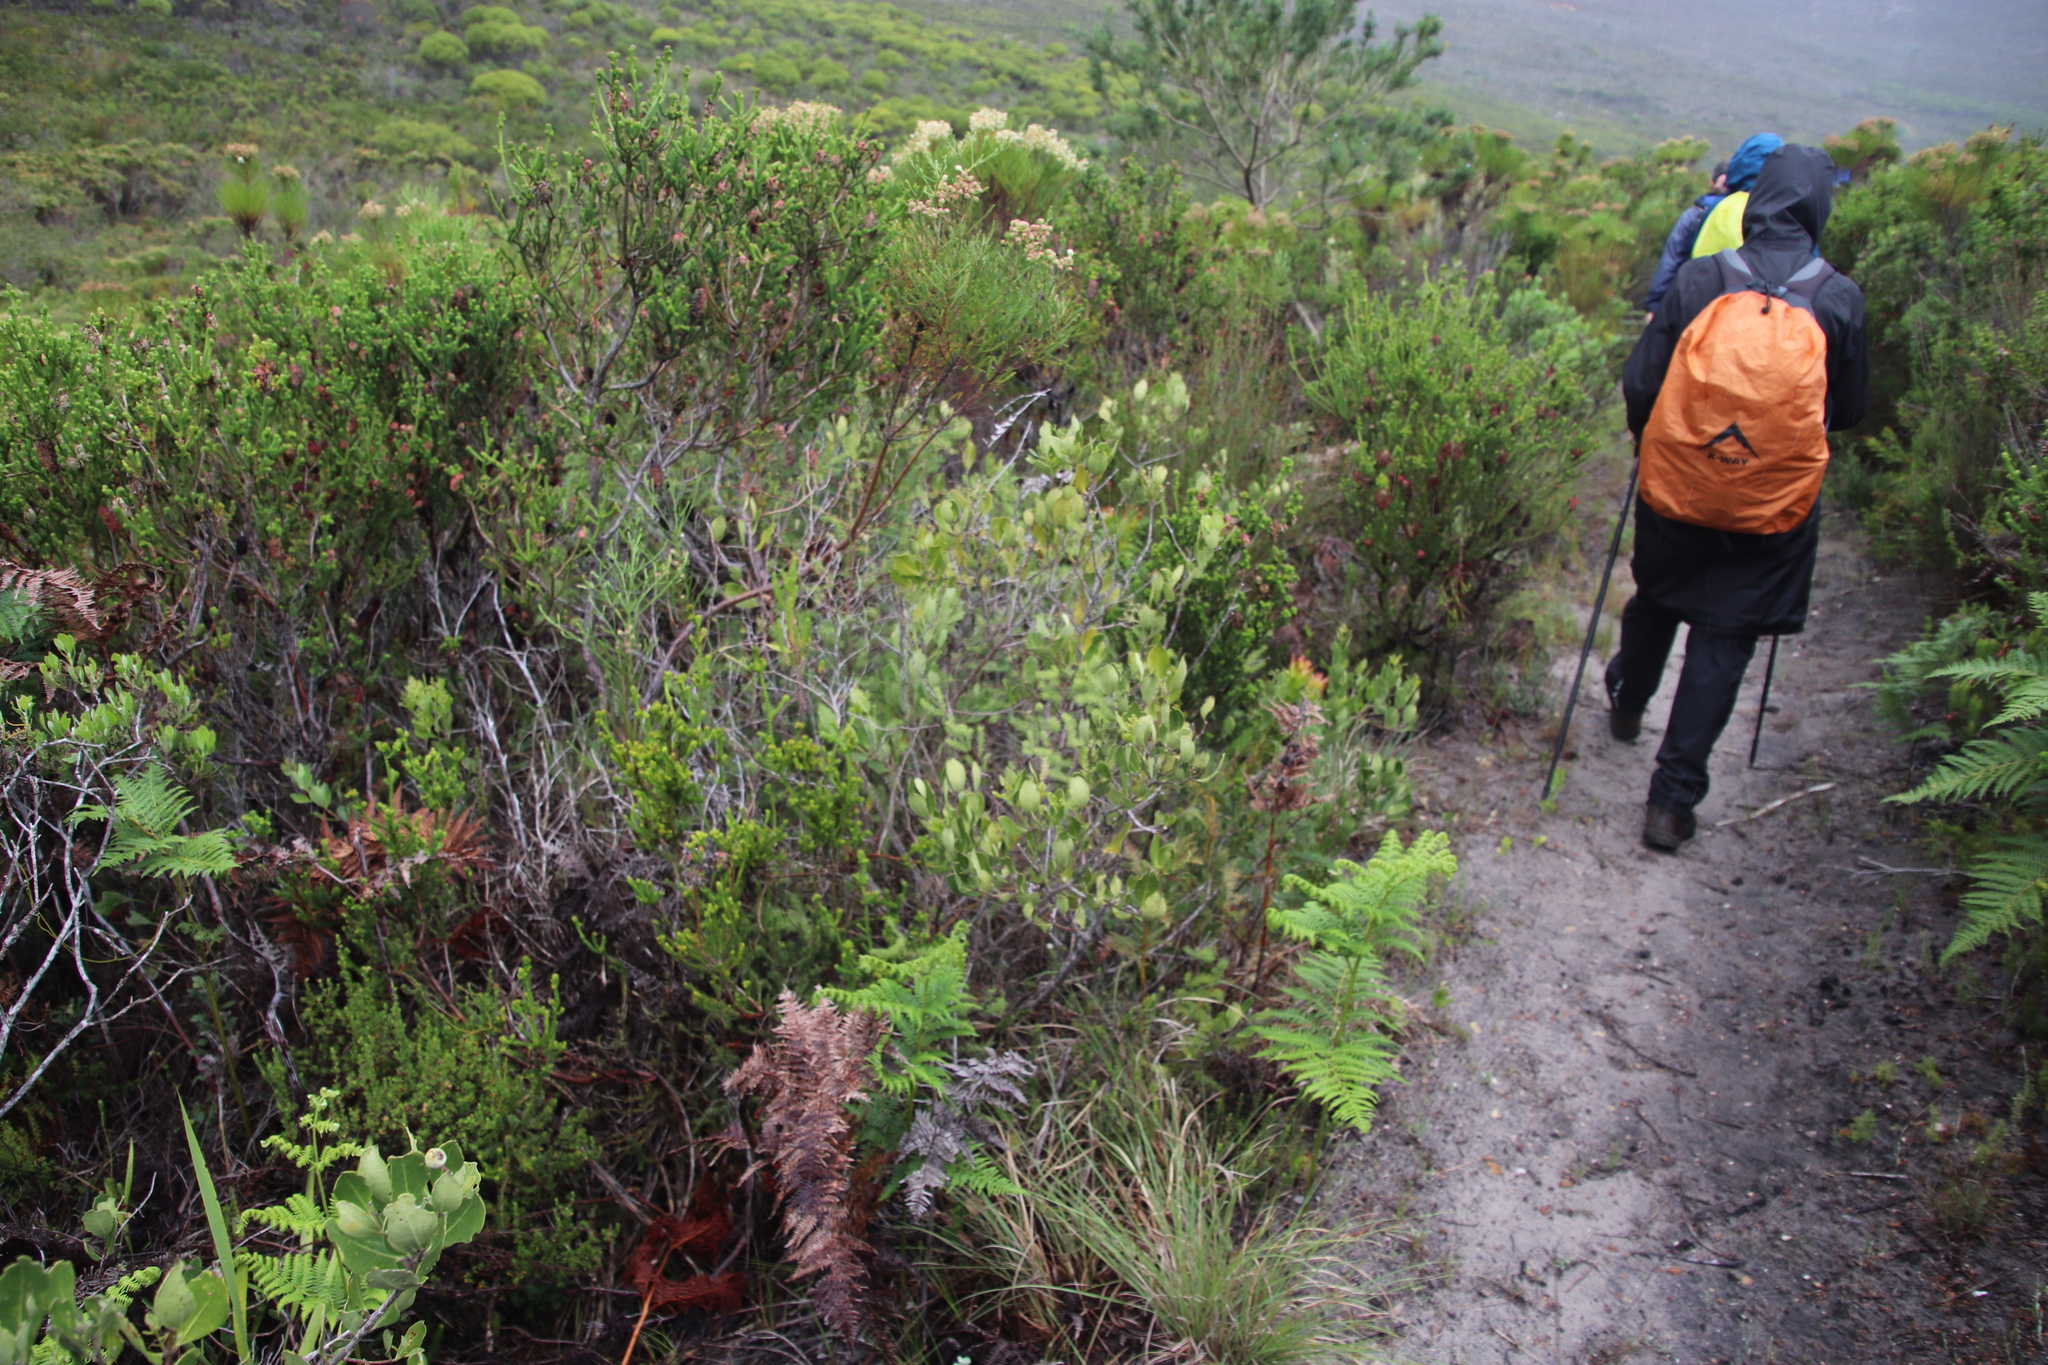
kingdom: Plantae
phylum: Tracheophyta
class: Magnoliopsida
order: Lamiales
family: Oleaceae
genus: Olea
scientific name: Olea capensis
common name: Black ironwood
